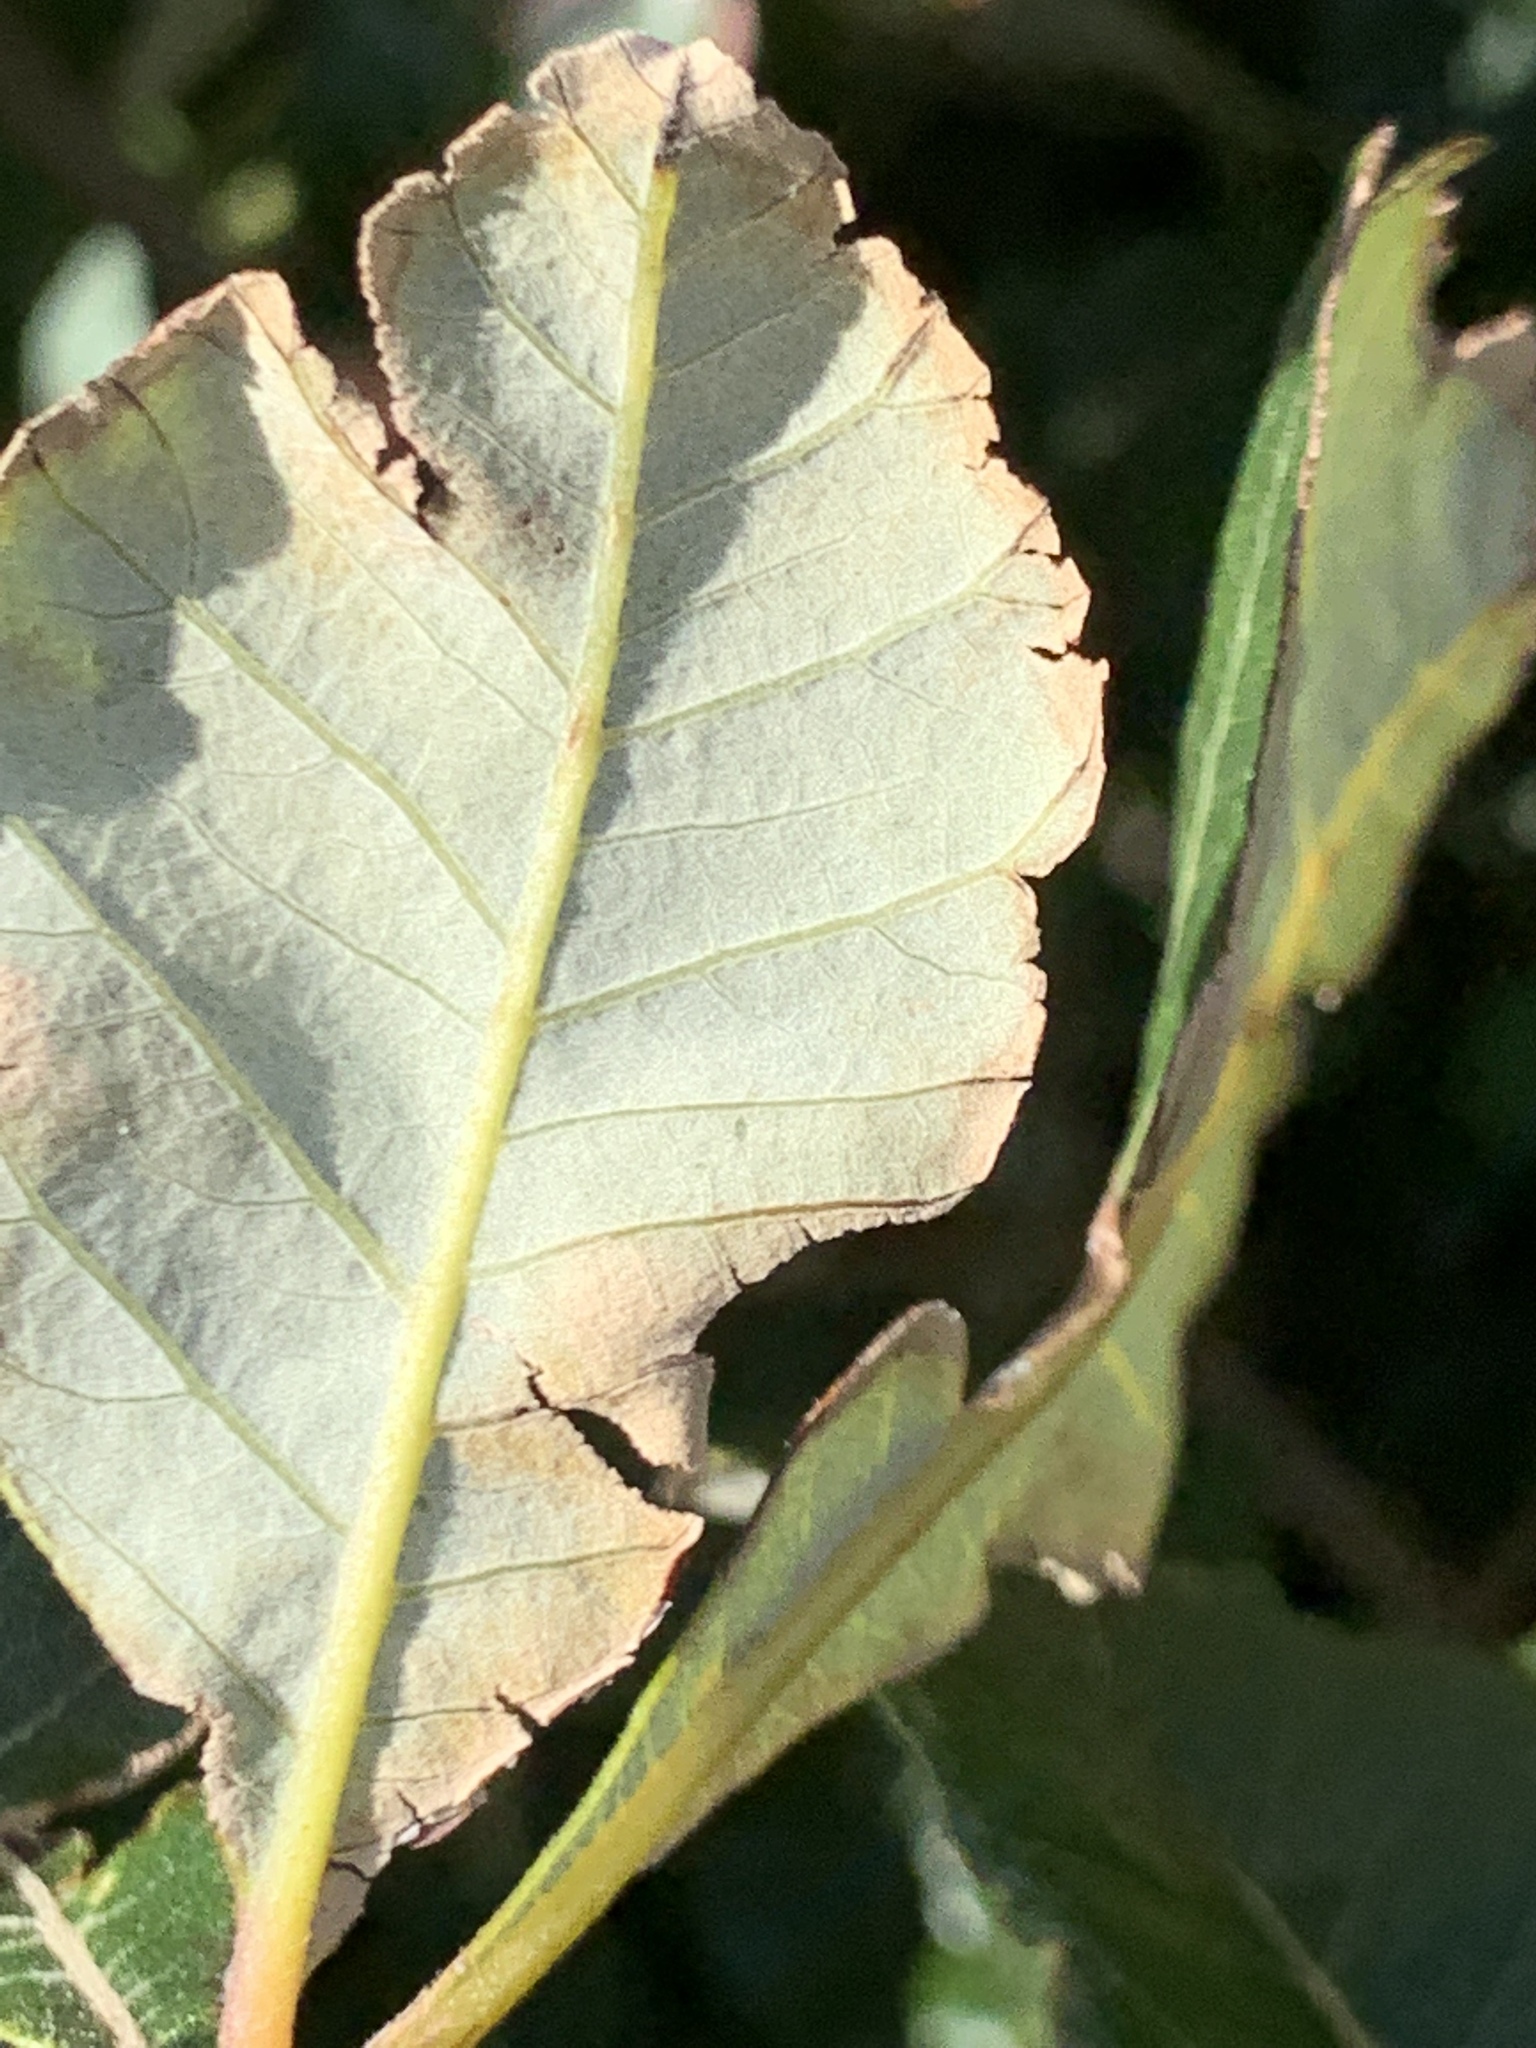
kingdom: Plantae
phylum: Tracheophyta
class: Magnoliopsida
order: Sapindales
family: Anacardiaceae
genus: Searsia
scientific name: Searsia tomentosa
